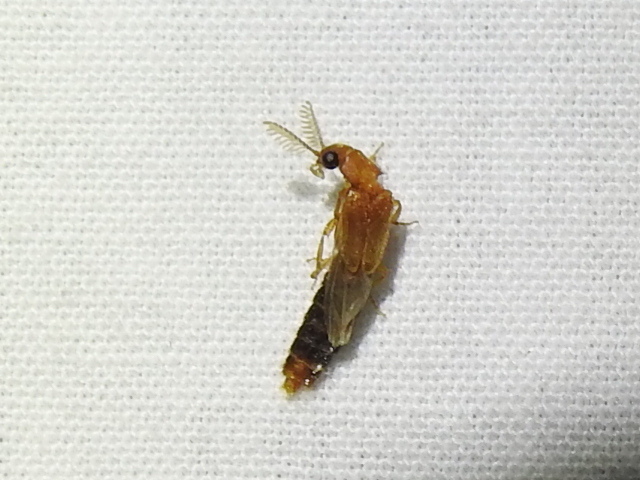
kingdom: Animalia
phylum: Arthropoda
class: Insecta
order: Coleoptera
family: Phengodidae
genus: Distremocephalus
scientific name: Distremocephalus texanus
